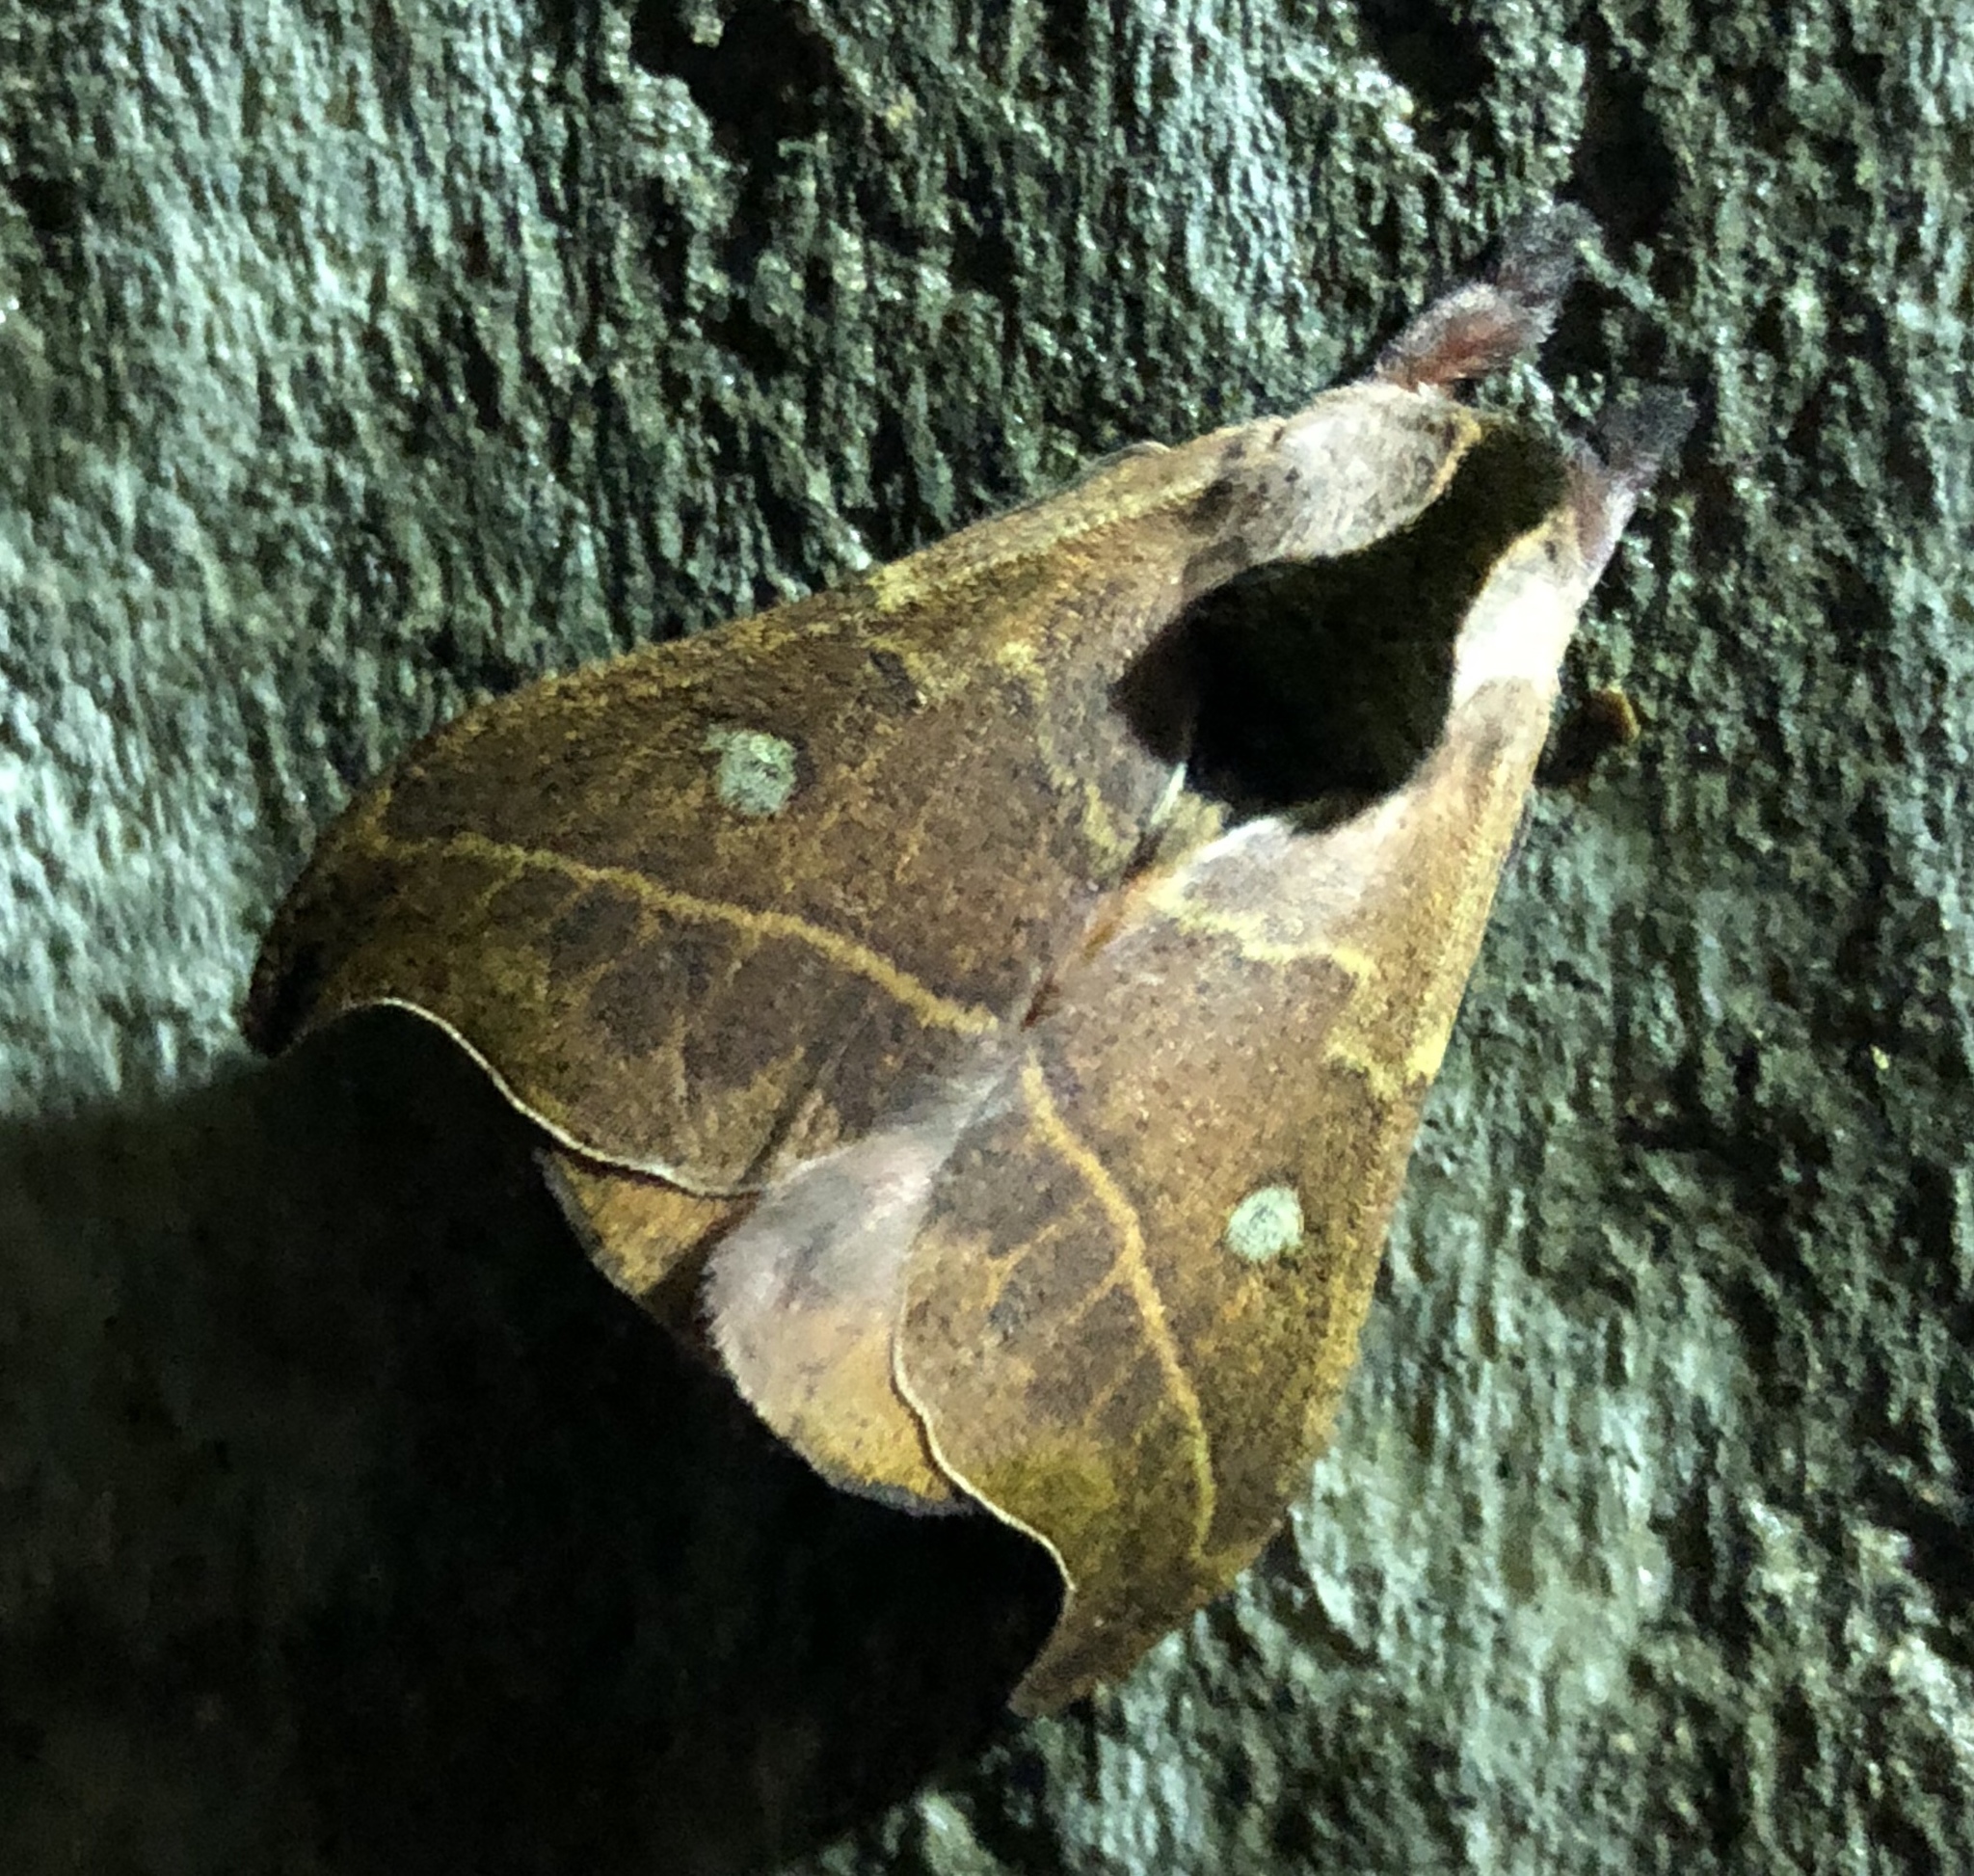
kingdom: Animalia
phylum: Arthropoda
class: Insecta
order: Lepidoptera
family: Saturniidae
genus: Hylesia
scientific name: Hylesia nanus
